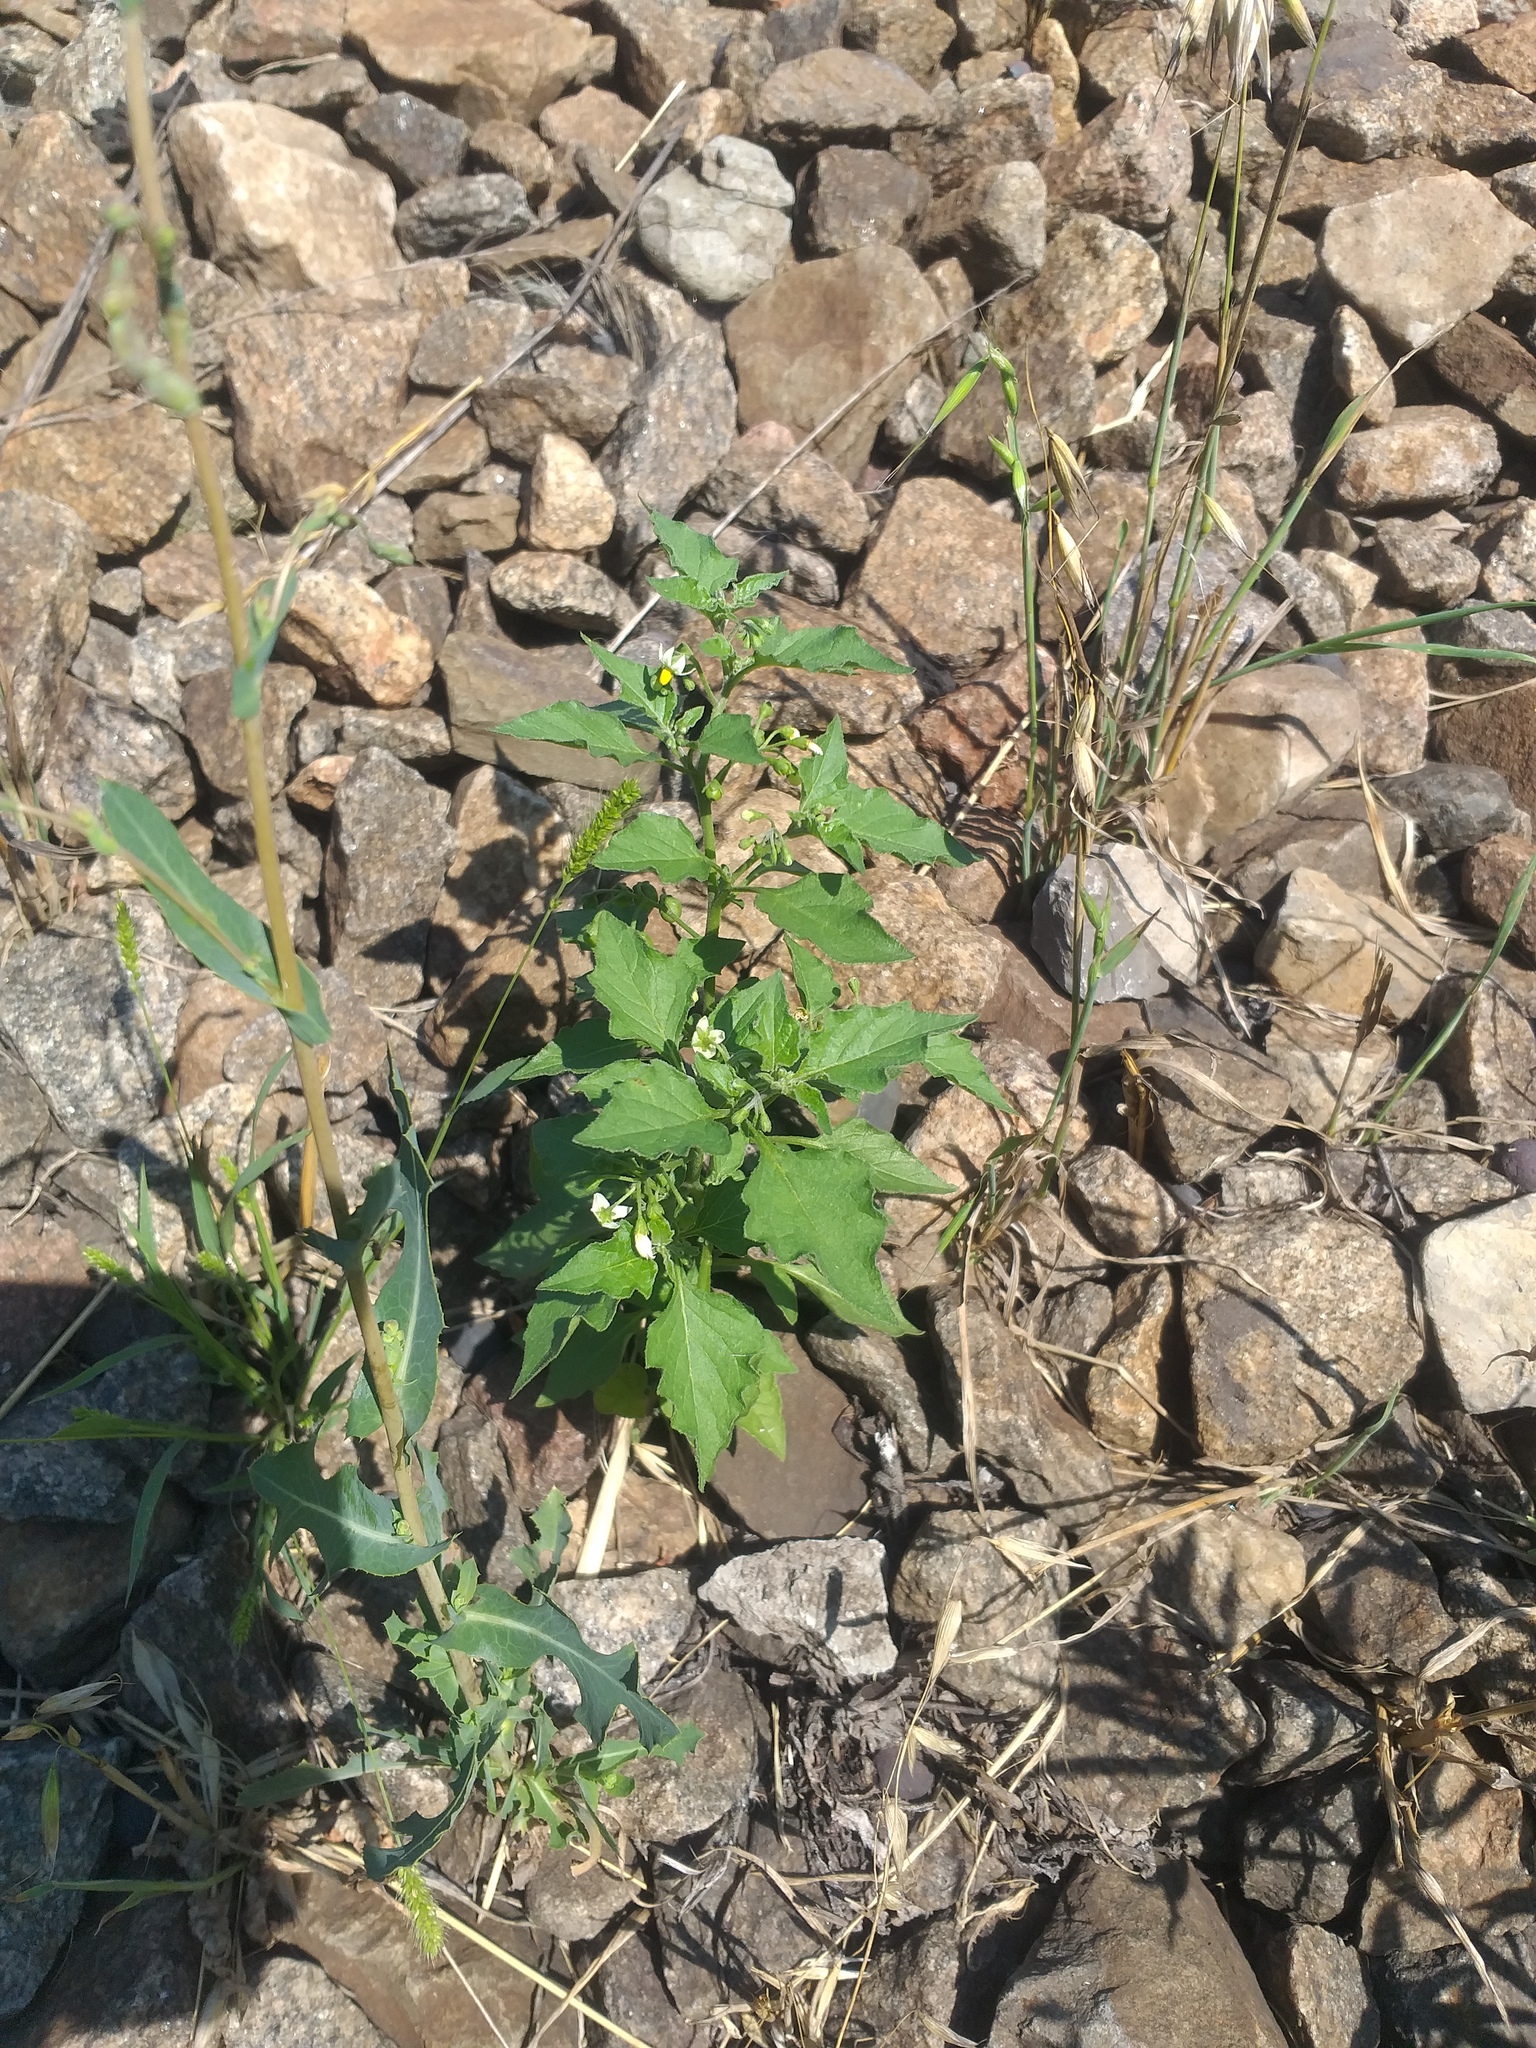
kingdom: Plantae
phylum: Tracheophyta
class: Magnoliopsida
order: Solanales
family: Solanaceae
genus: Solanum
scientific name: Solanum nigrum
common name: Black nightshade
